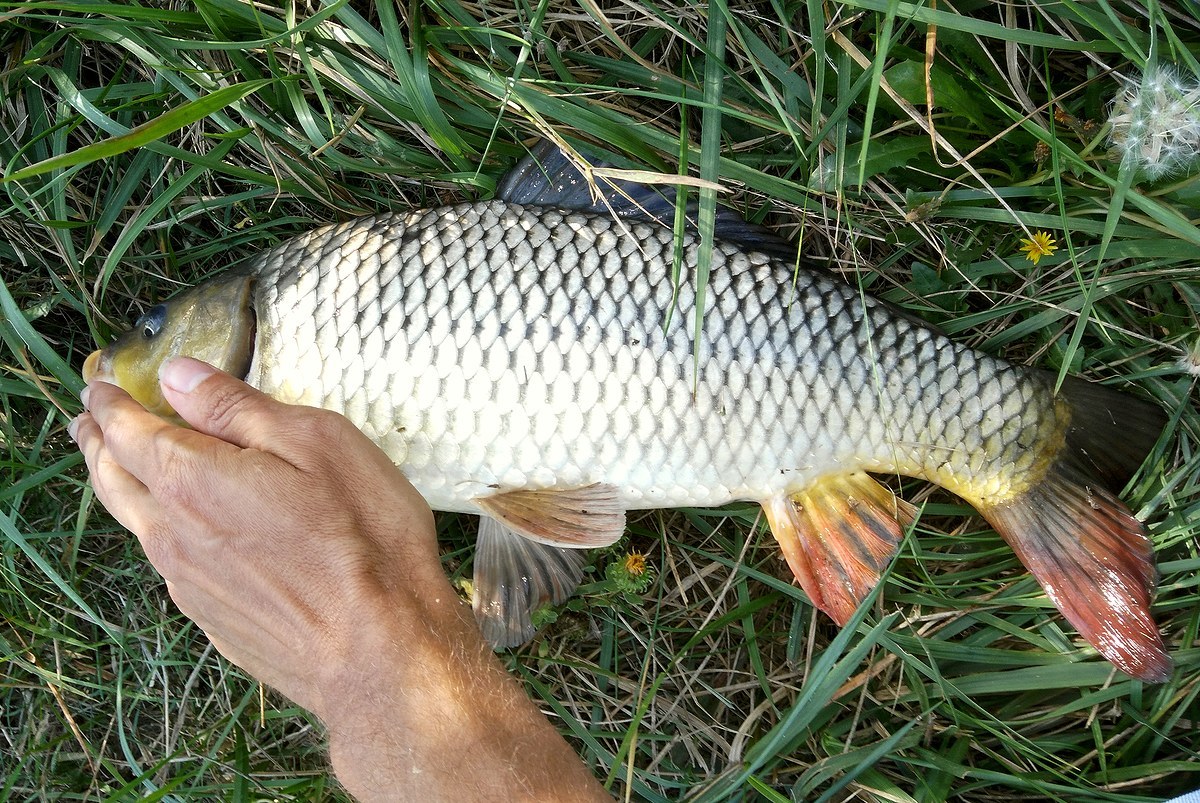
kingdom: Animalia
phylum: Chordata
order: Cypriniformes
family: Cyprinidae
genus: Cyprinus
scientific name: Cyprinus carpio
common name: Common carp
